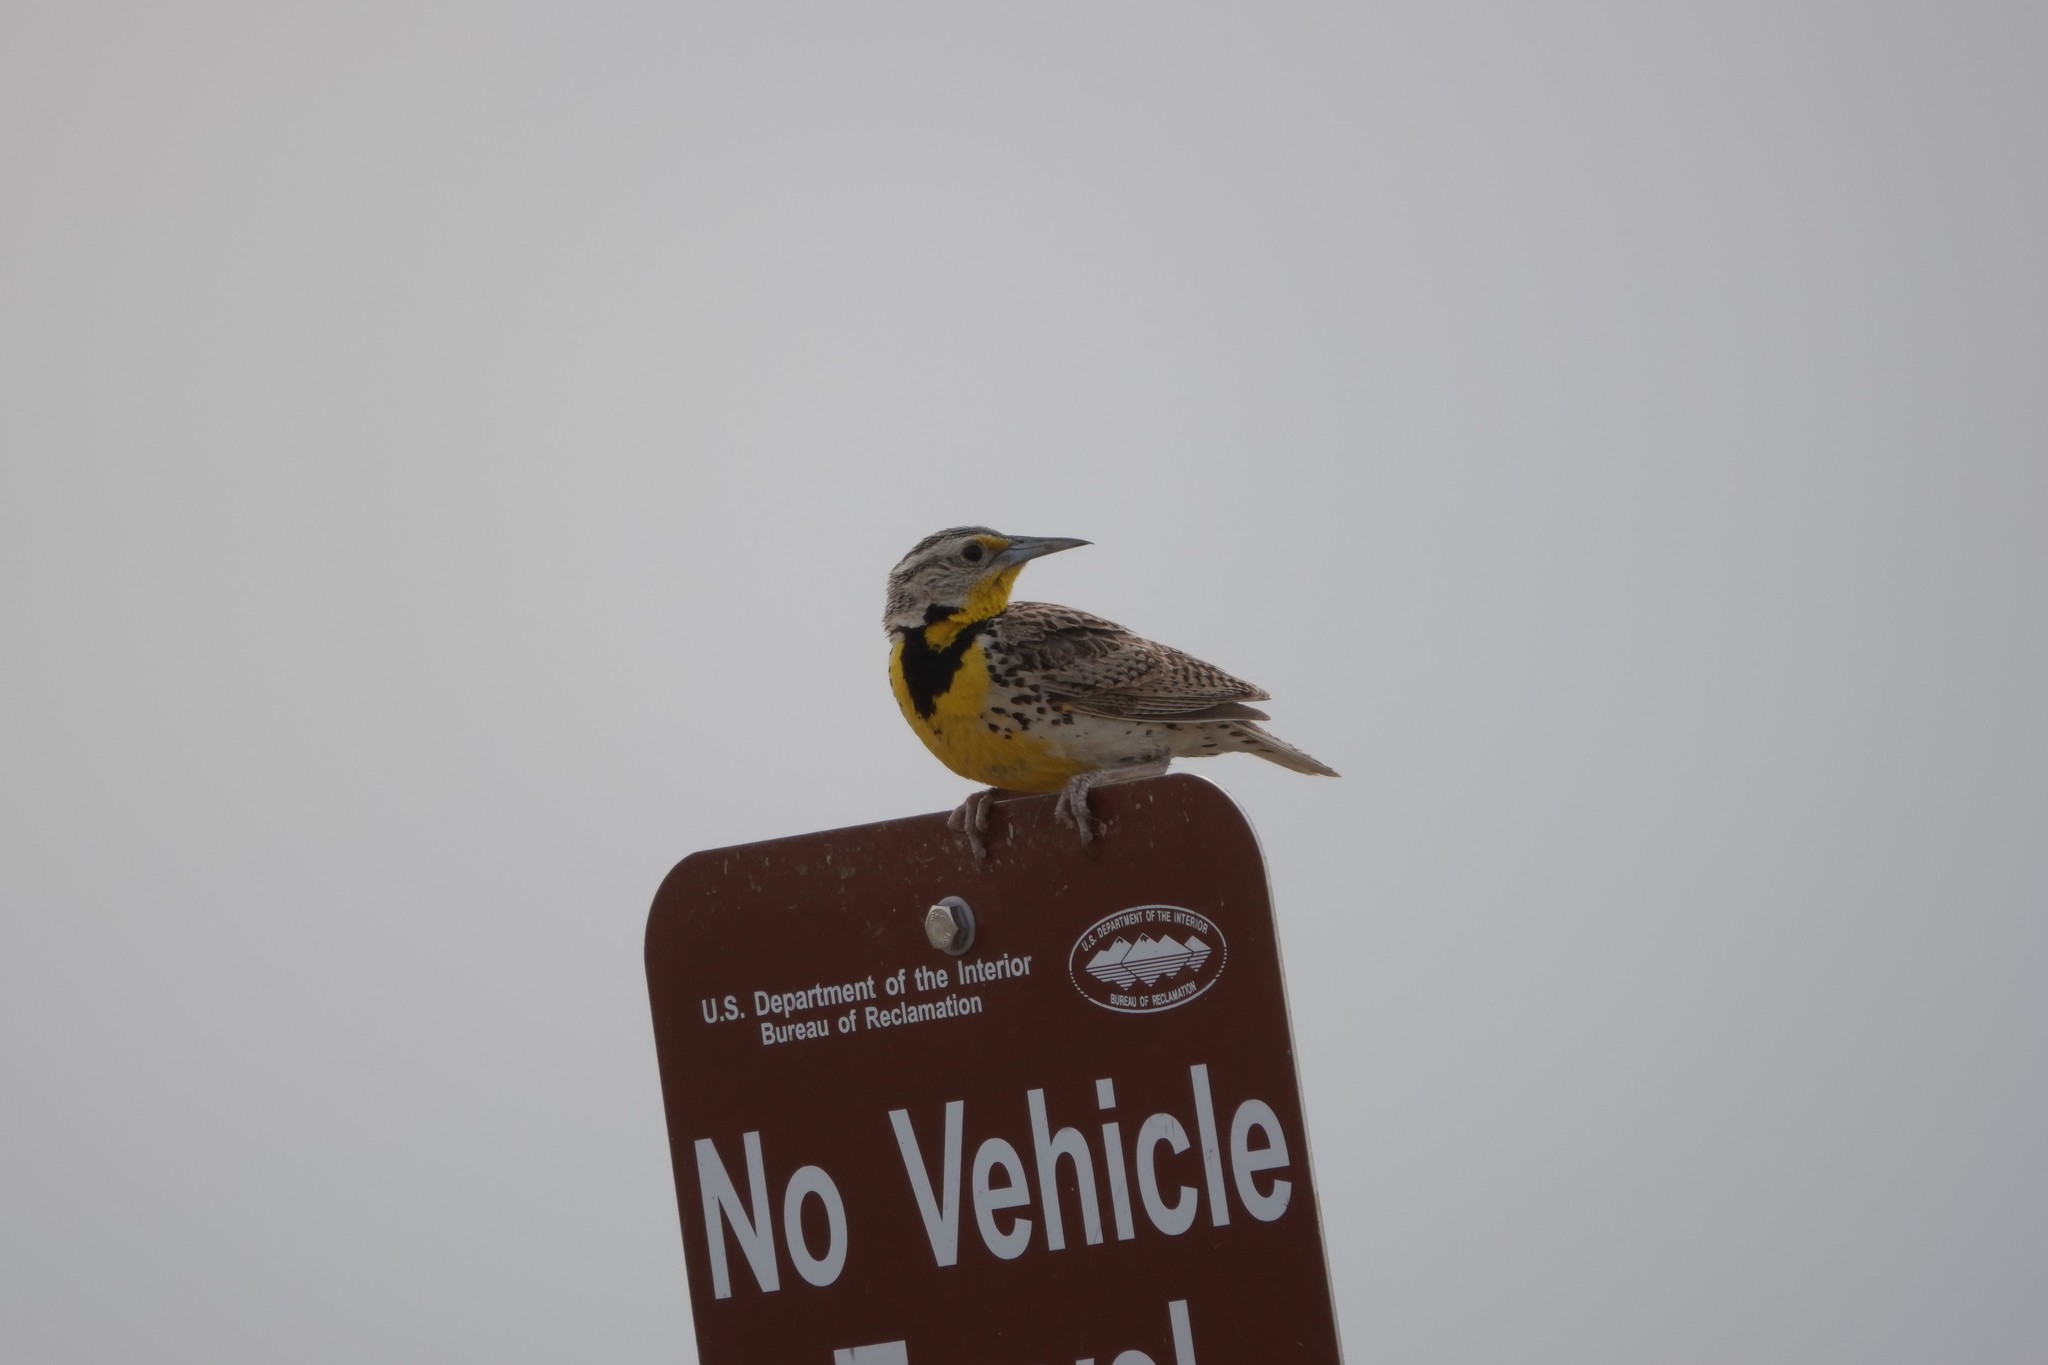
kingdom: Animalia
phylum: Chordata
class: Aves
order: Passeriformes
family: Icteridae
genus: Sturnella
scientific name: Sturnella neglecta
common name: Western meadowlark
